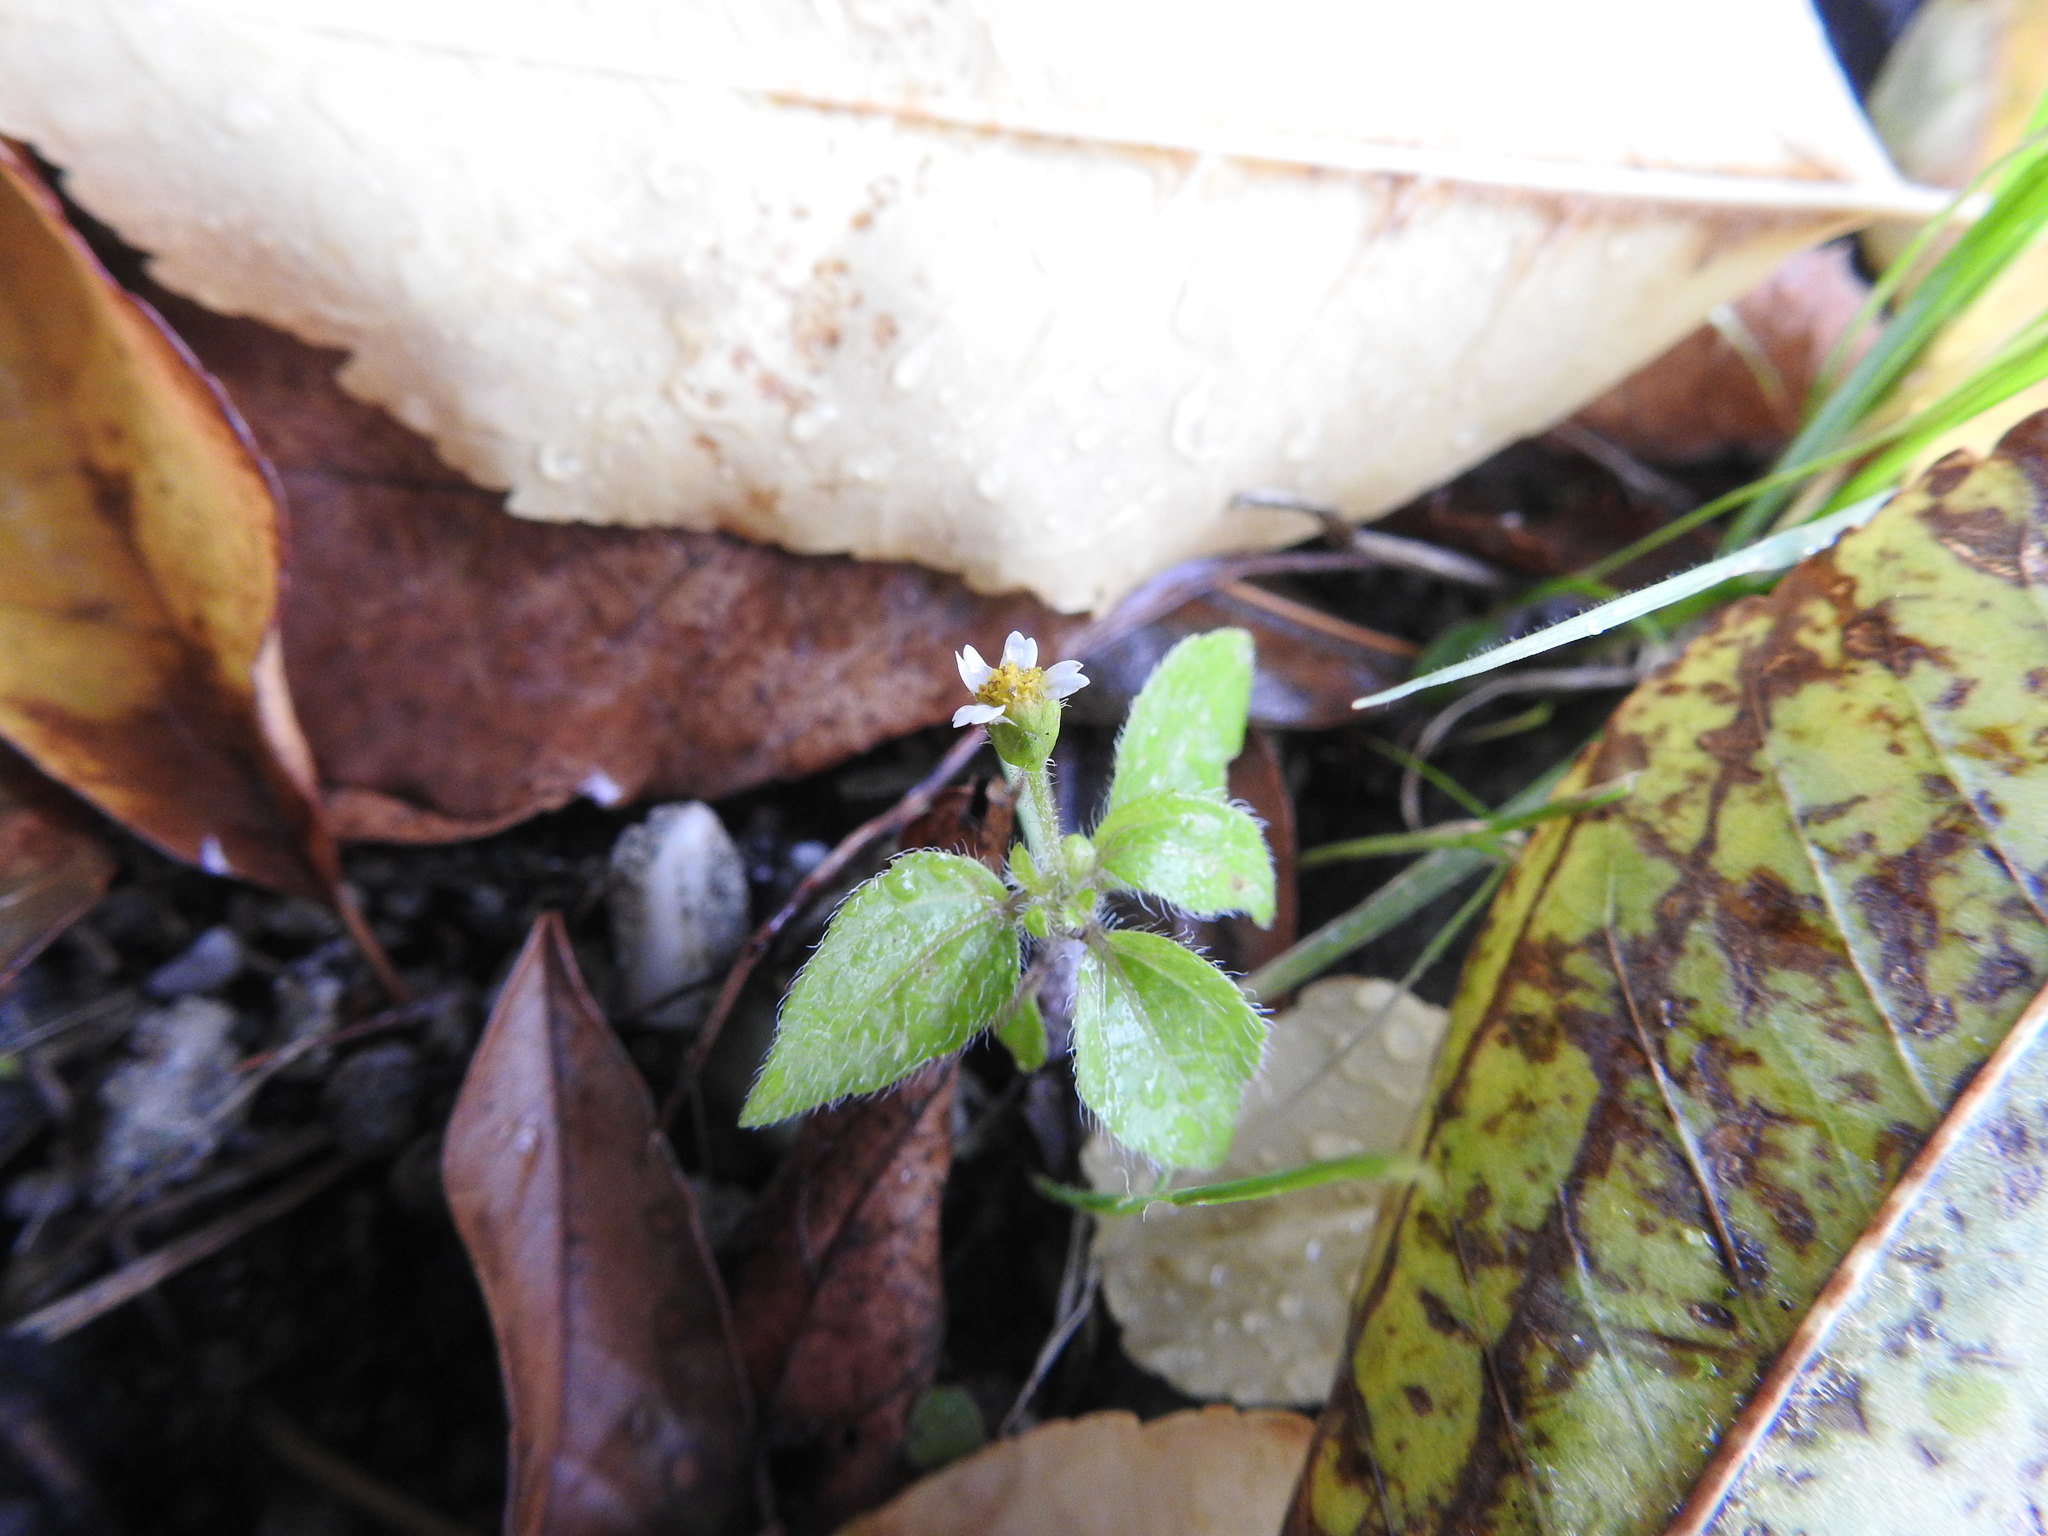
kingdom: Plantae
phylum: Tracheophyta
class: Magnoliopsida
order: Asterales
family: Asteraceae
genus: Galinsoga
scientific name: Galinsoga quadriradiata
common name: Shaggy soldier
